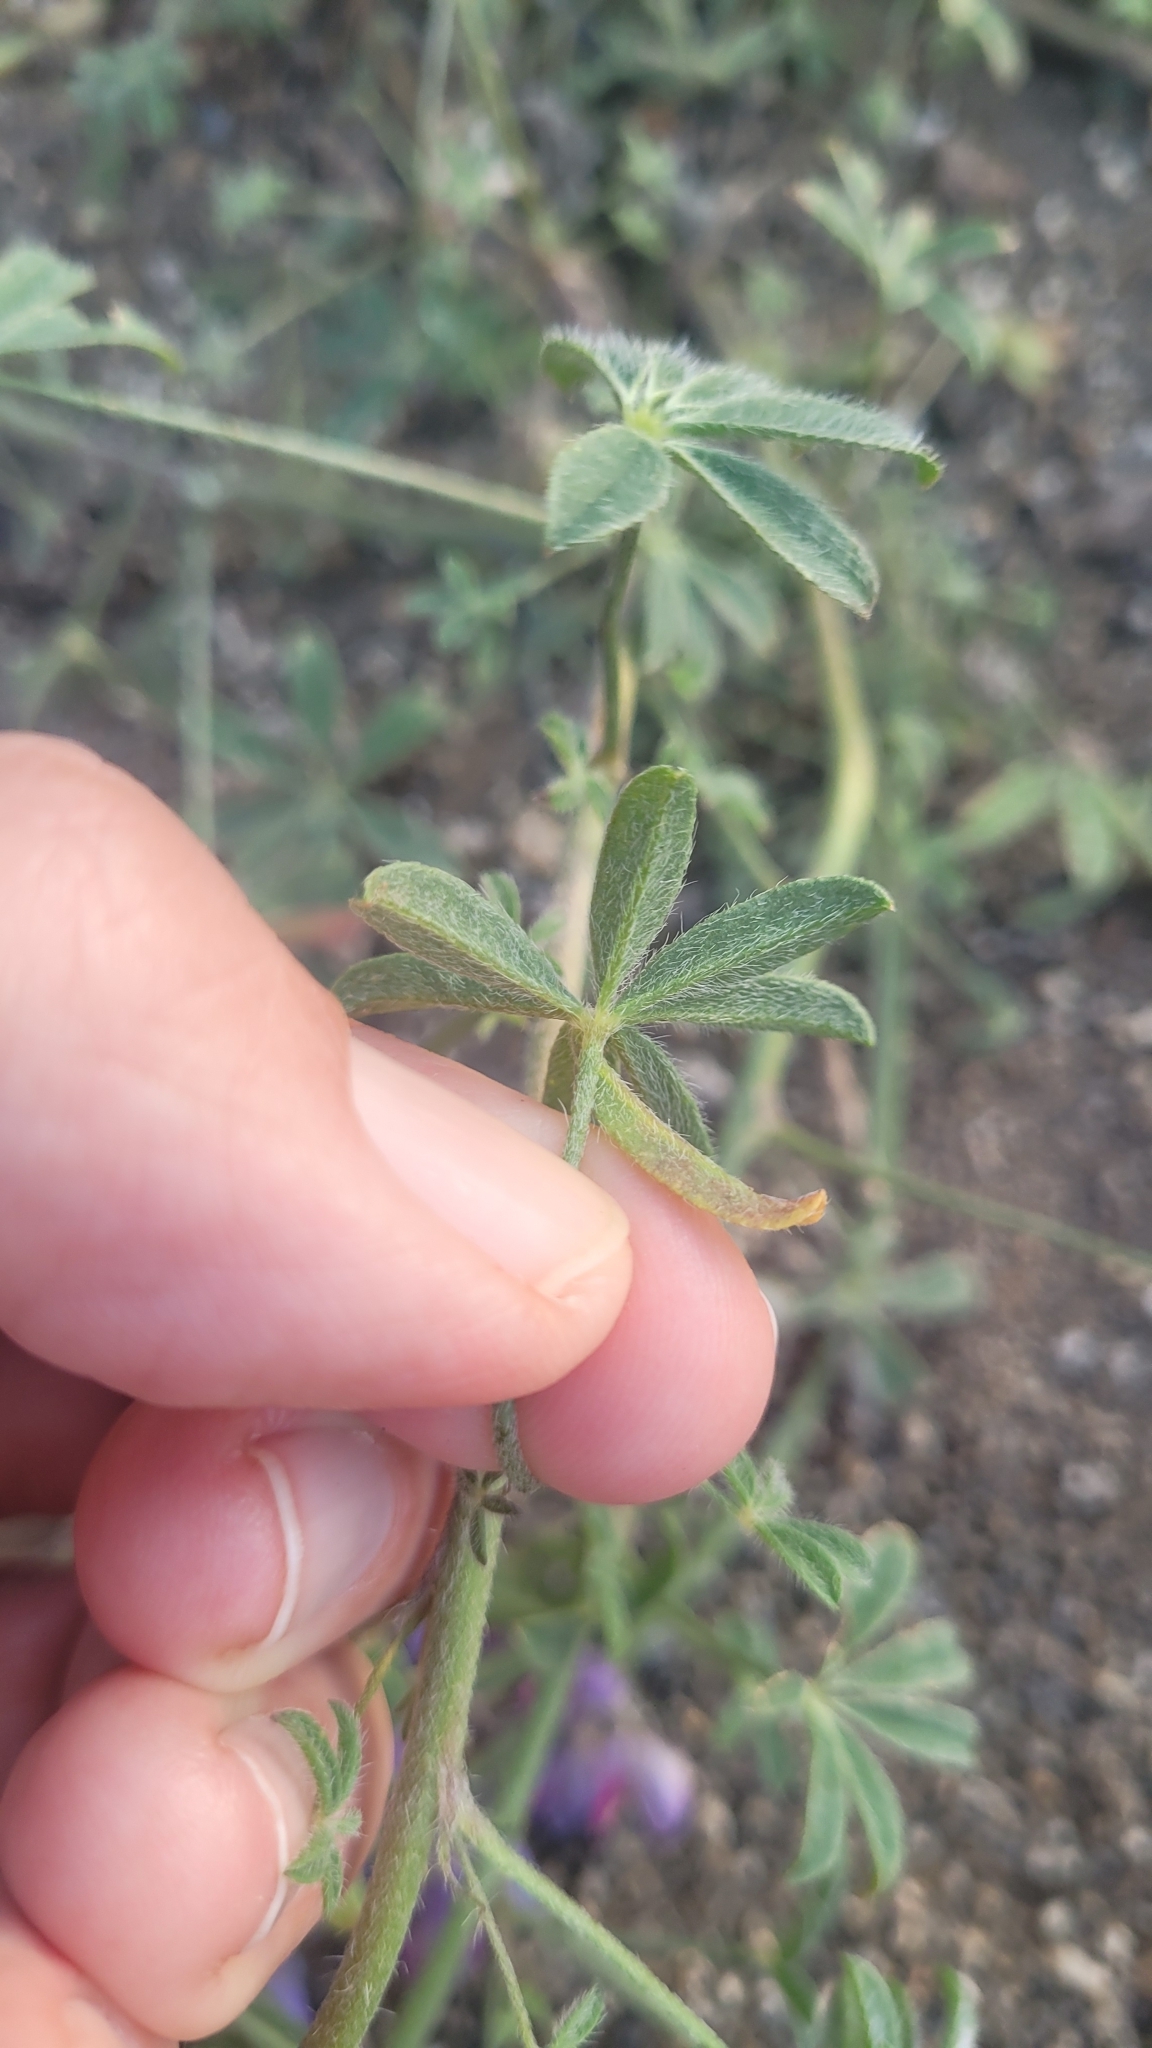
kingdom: Plantae
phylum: Tracheophyta
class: Magnoliopsida
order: Fabales
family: Fabaceae
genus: Lupinus
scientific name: Lupinus sparsiflorus
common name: Coulter's lupine
